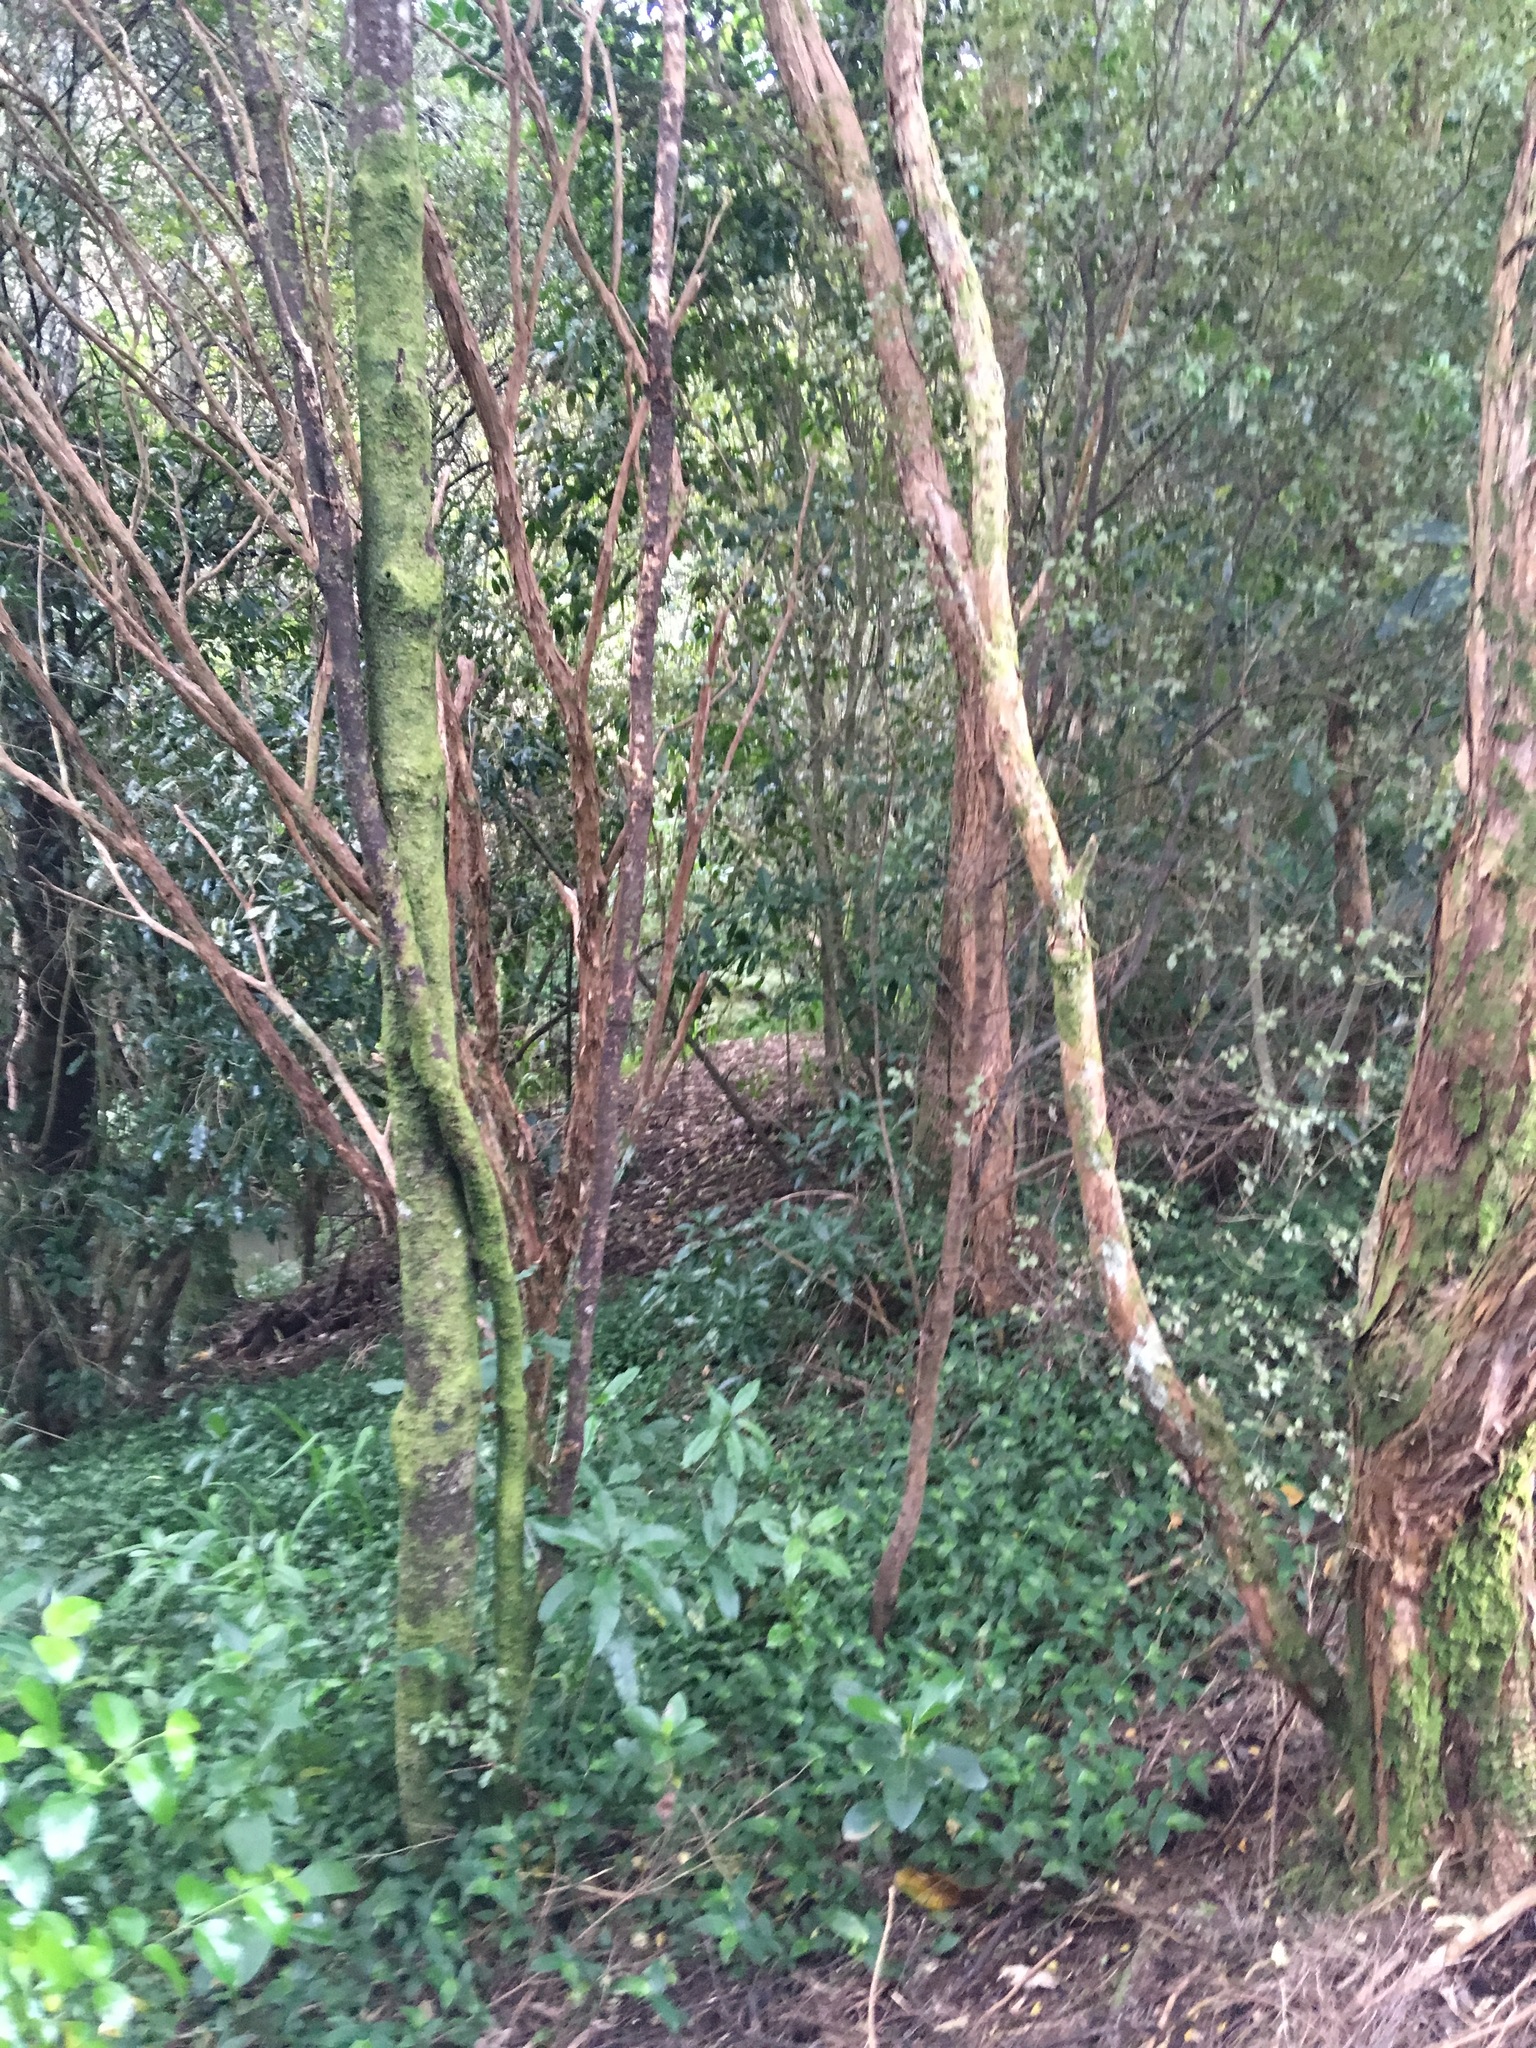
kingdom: Plantae
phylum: Tracheophyta
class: Liliopsida
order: Commelinales
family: Commelinaceae
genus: Tradescantia
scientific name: Tradescantia fluminensis
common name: Wandering-jew
